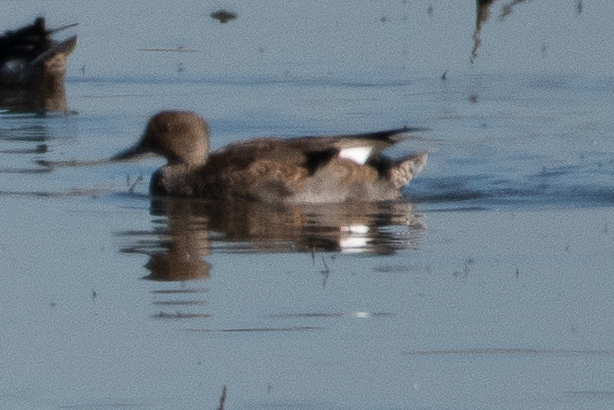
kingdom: Animalia
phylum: Chordata
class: Aves
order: Anseriformes
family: Anatidae
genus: Mareca
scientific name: Mareca strepera
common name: Gadwall
